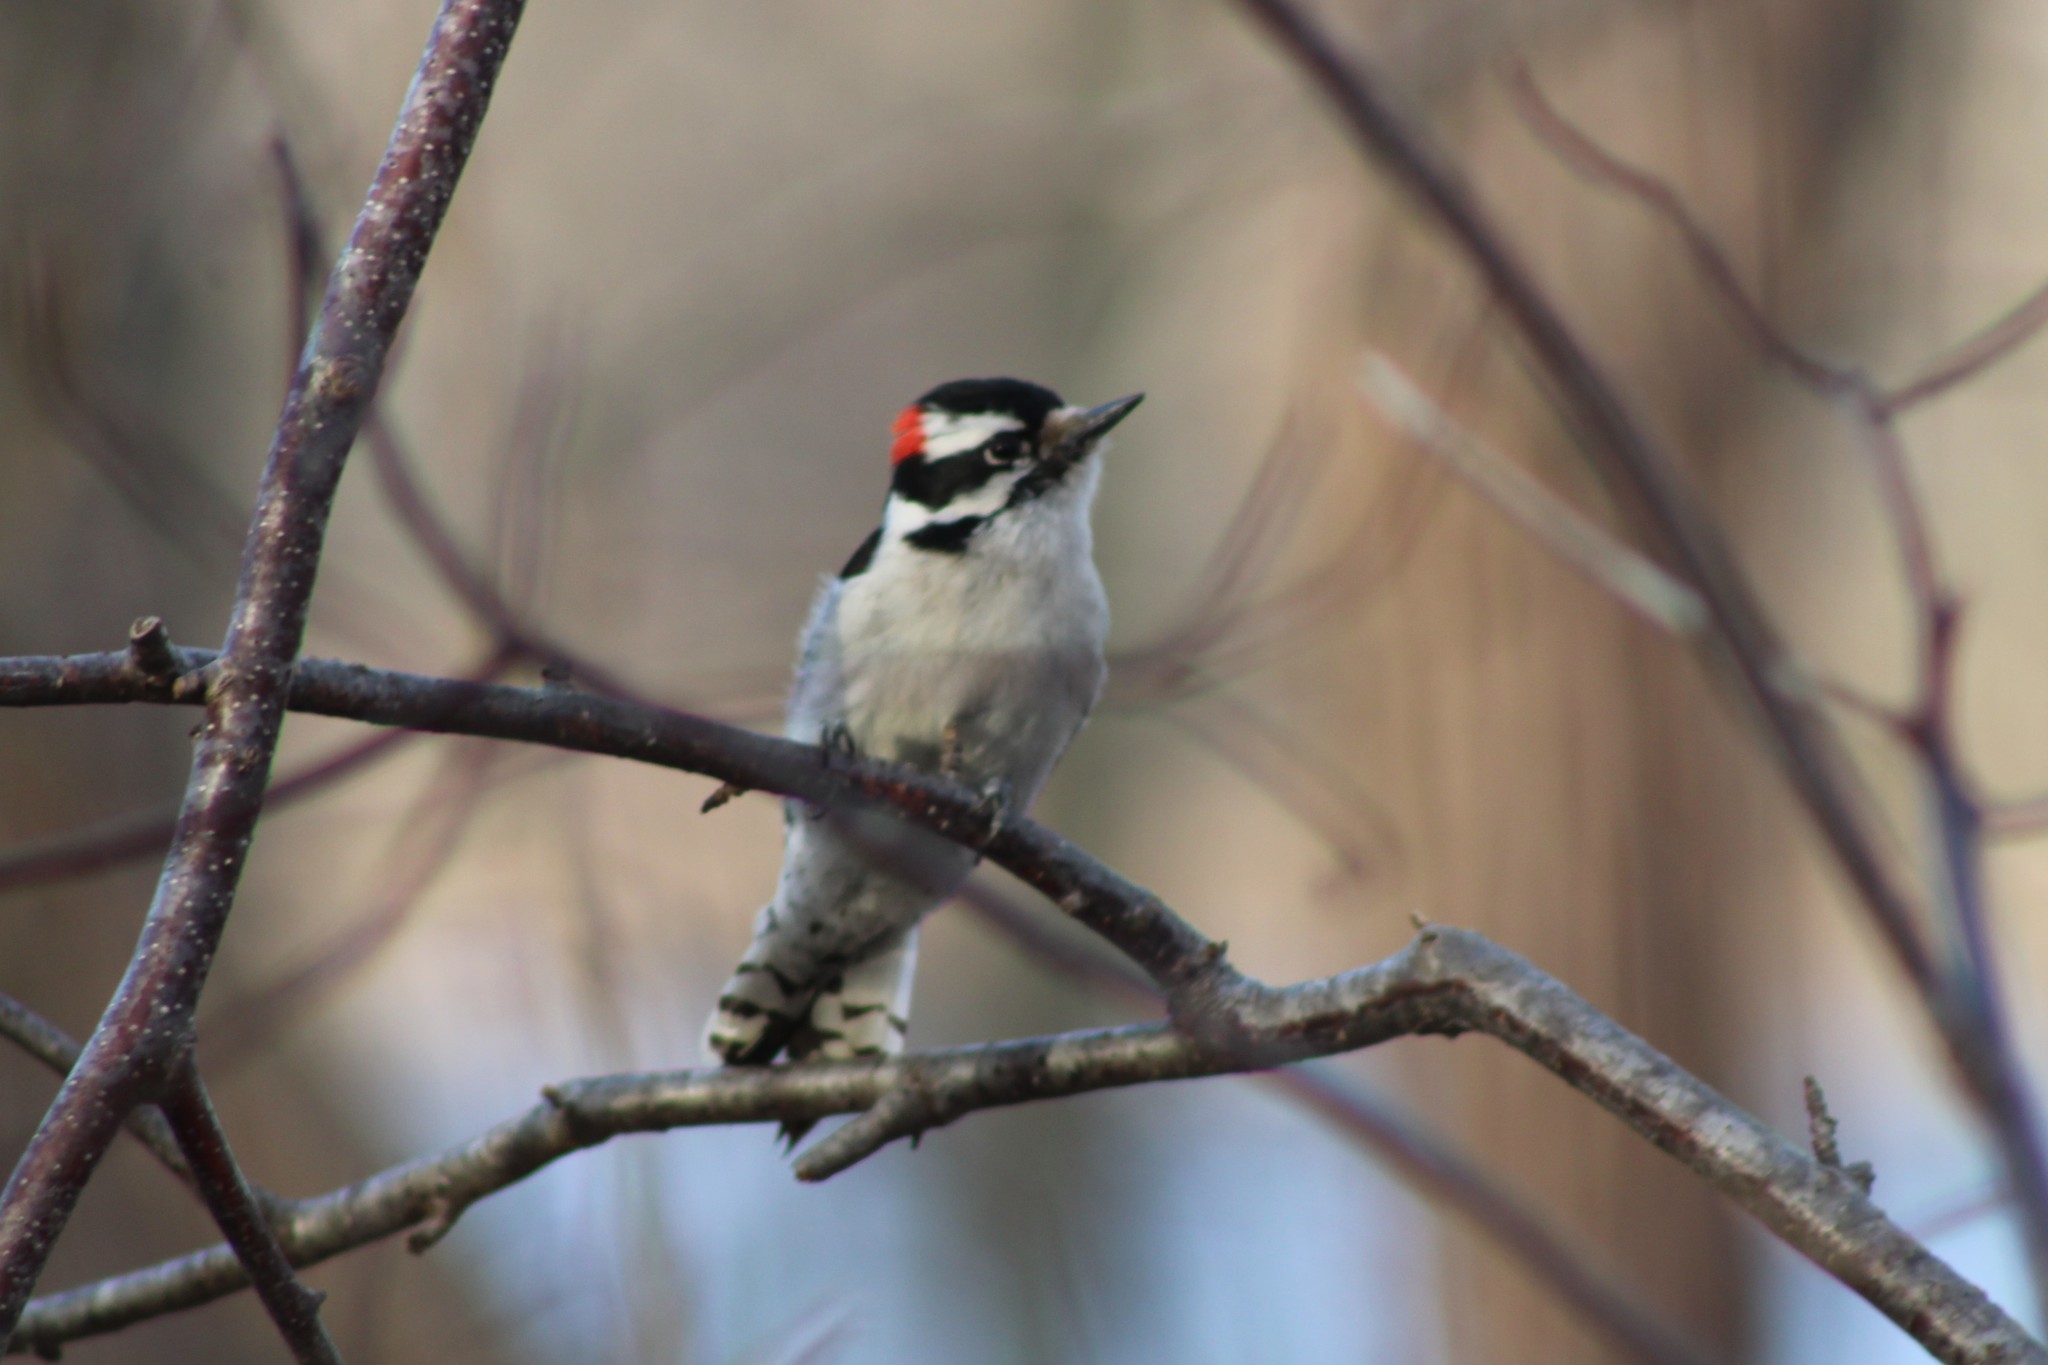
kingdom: Animalia
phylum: Chordata
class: Aves
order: Piciformes
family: Picidae
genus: Dryobates
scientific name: Dryobates pubescens
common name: Downy woodpecker
